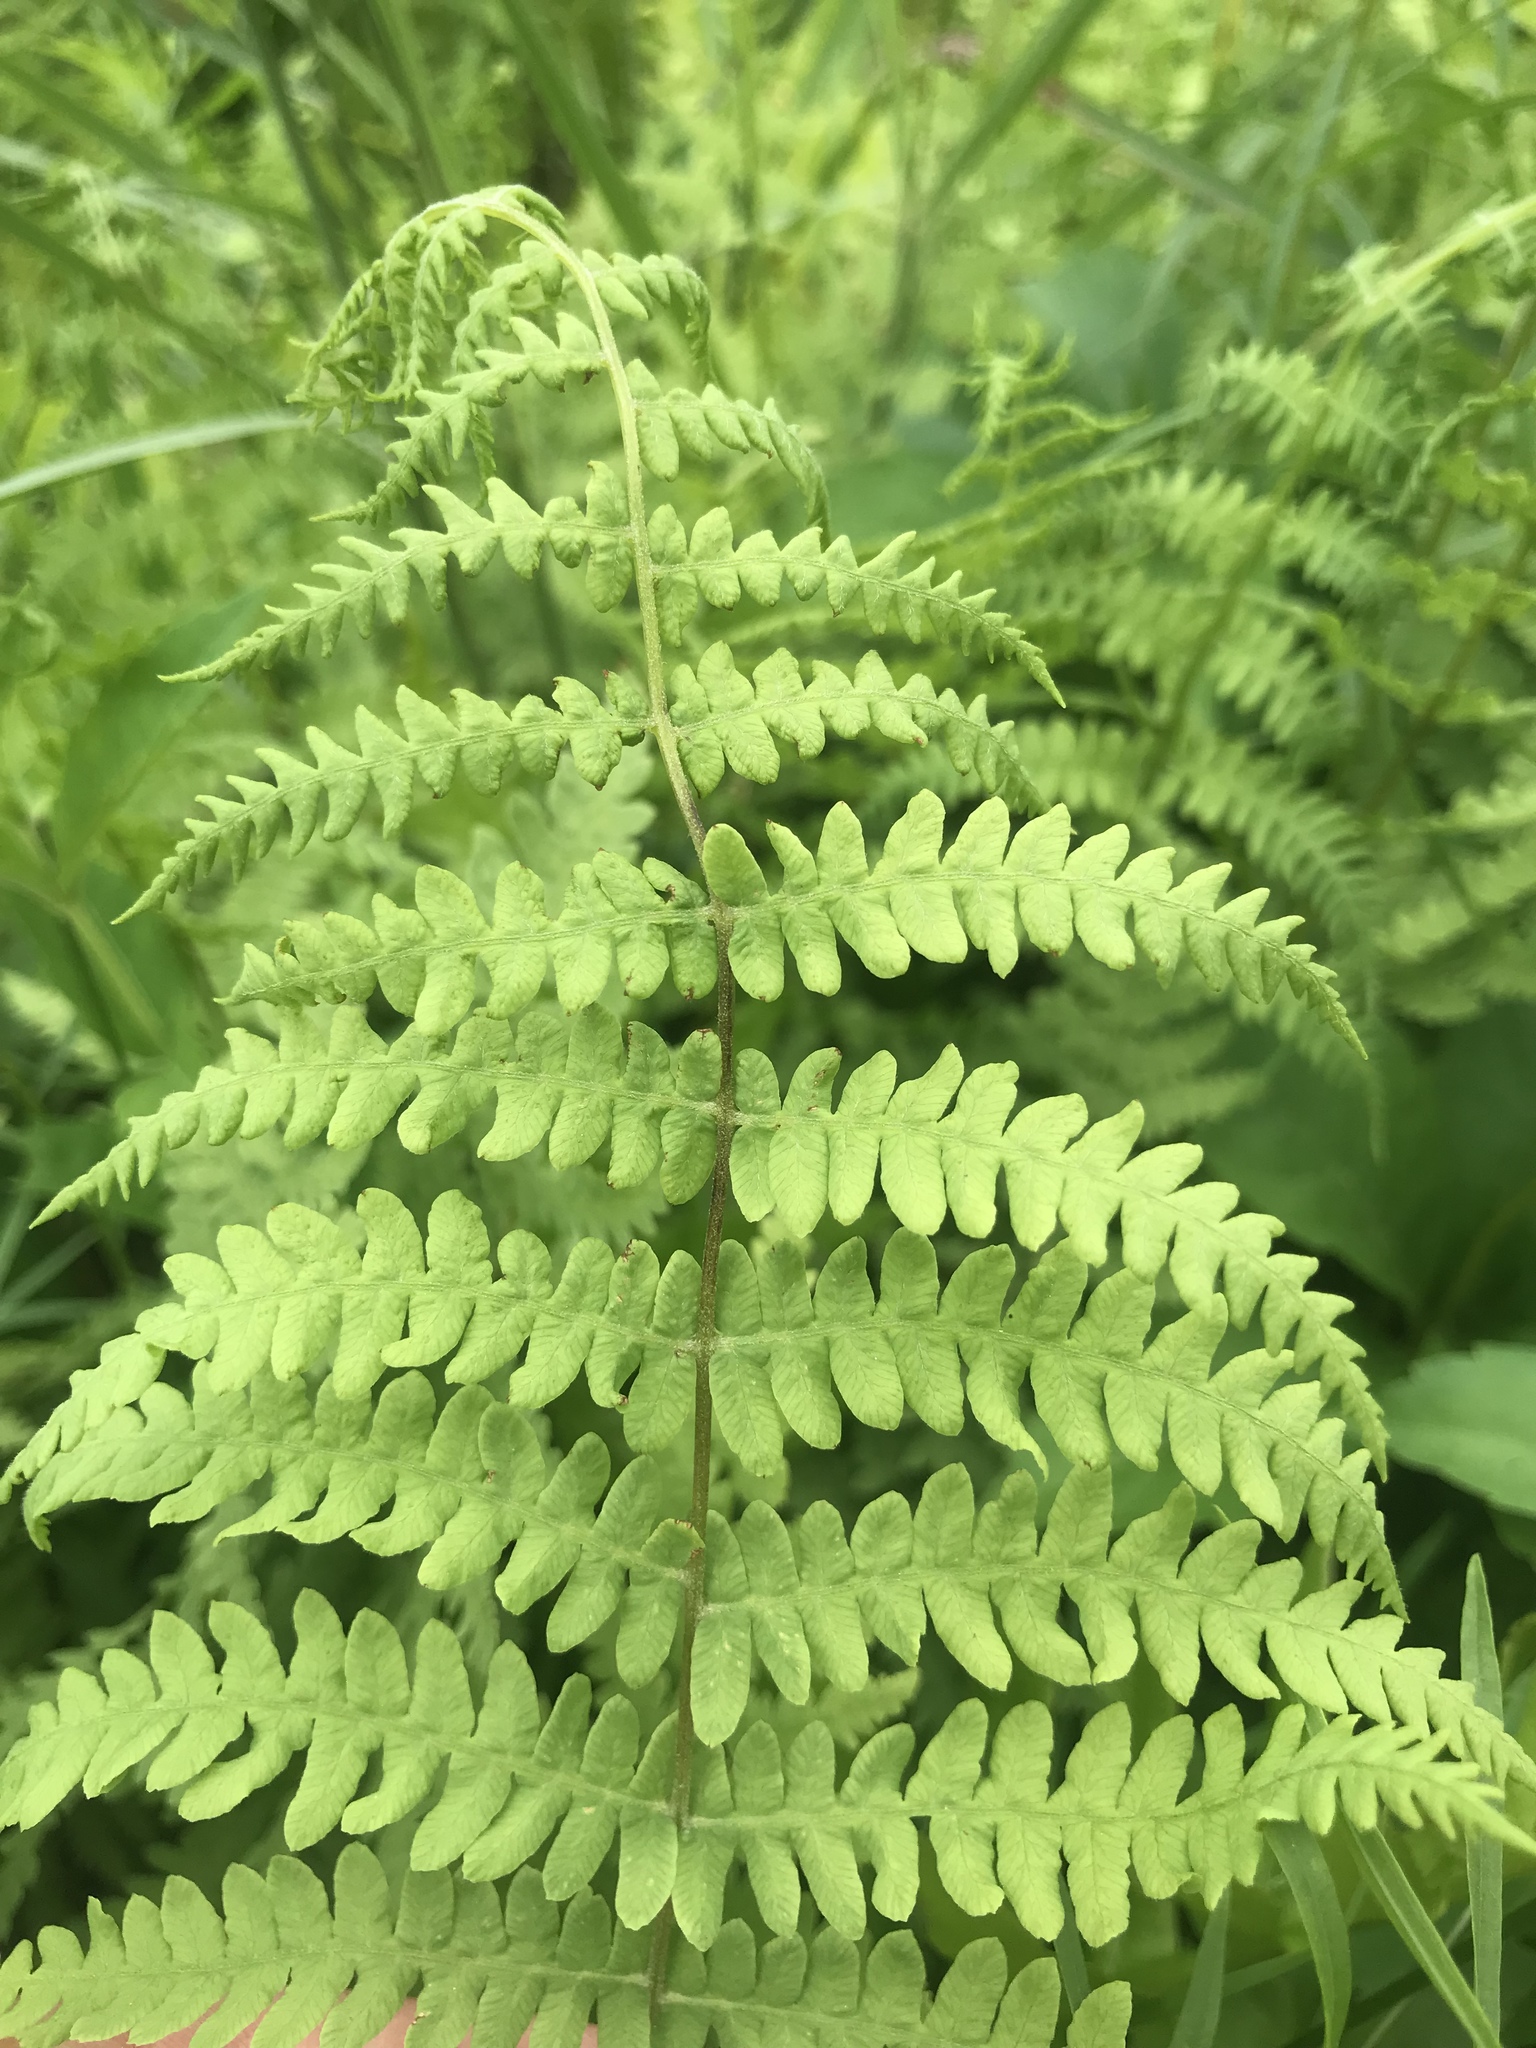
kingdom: Plantae
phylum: Tracheophyta
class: Polypodiopsida
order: Polypodiales
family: Thelypteridaceae
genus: Thelypteris
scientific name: Thelypteris palustris
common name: Marsh fern
